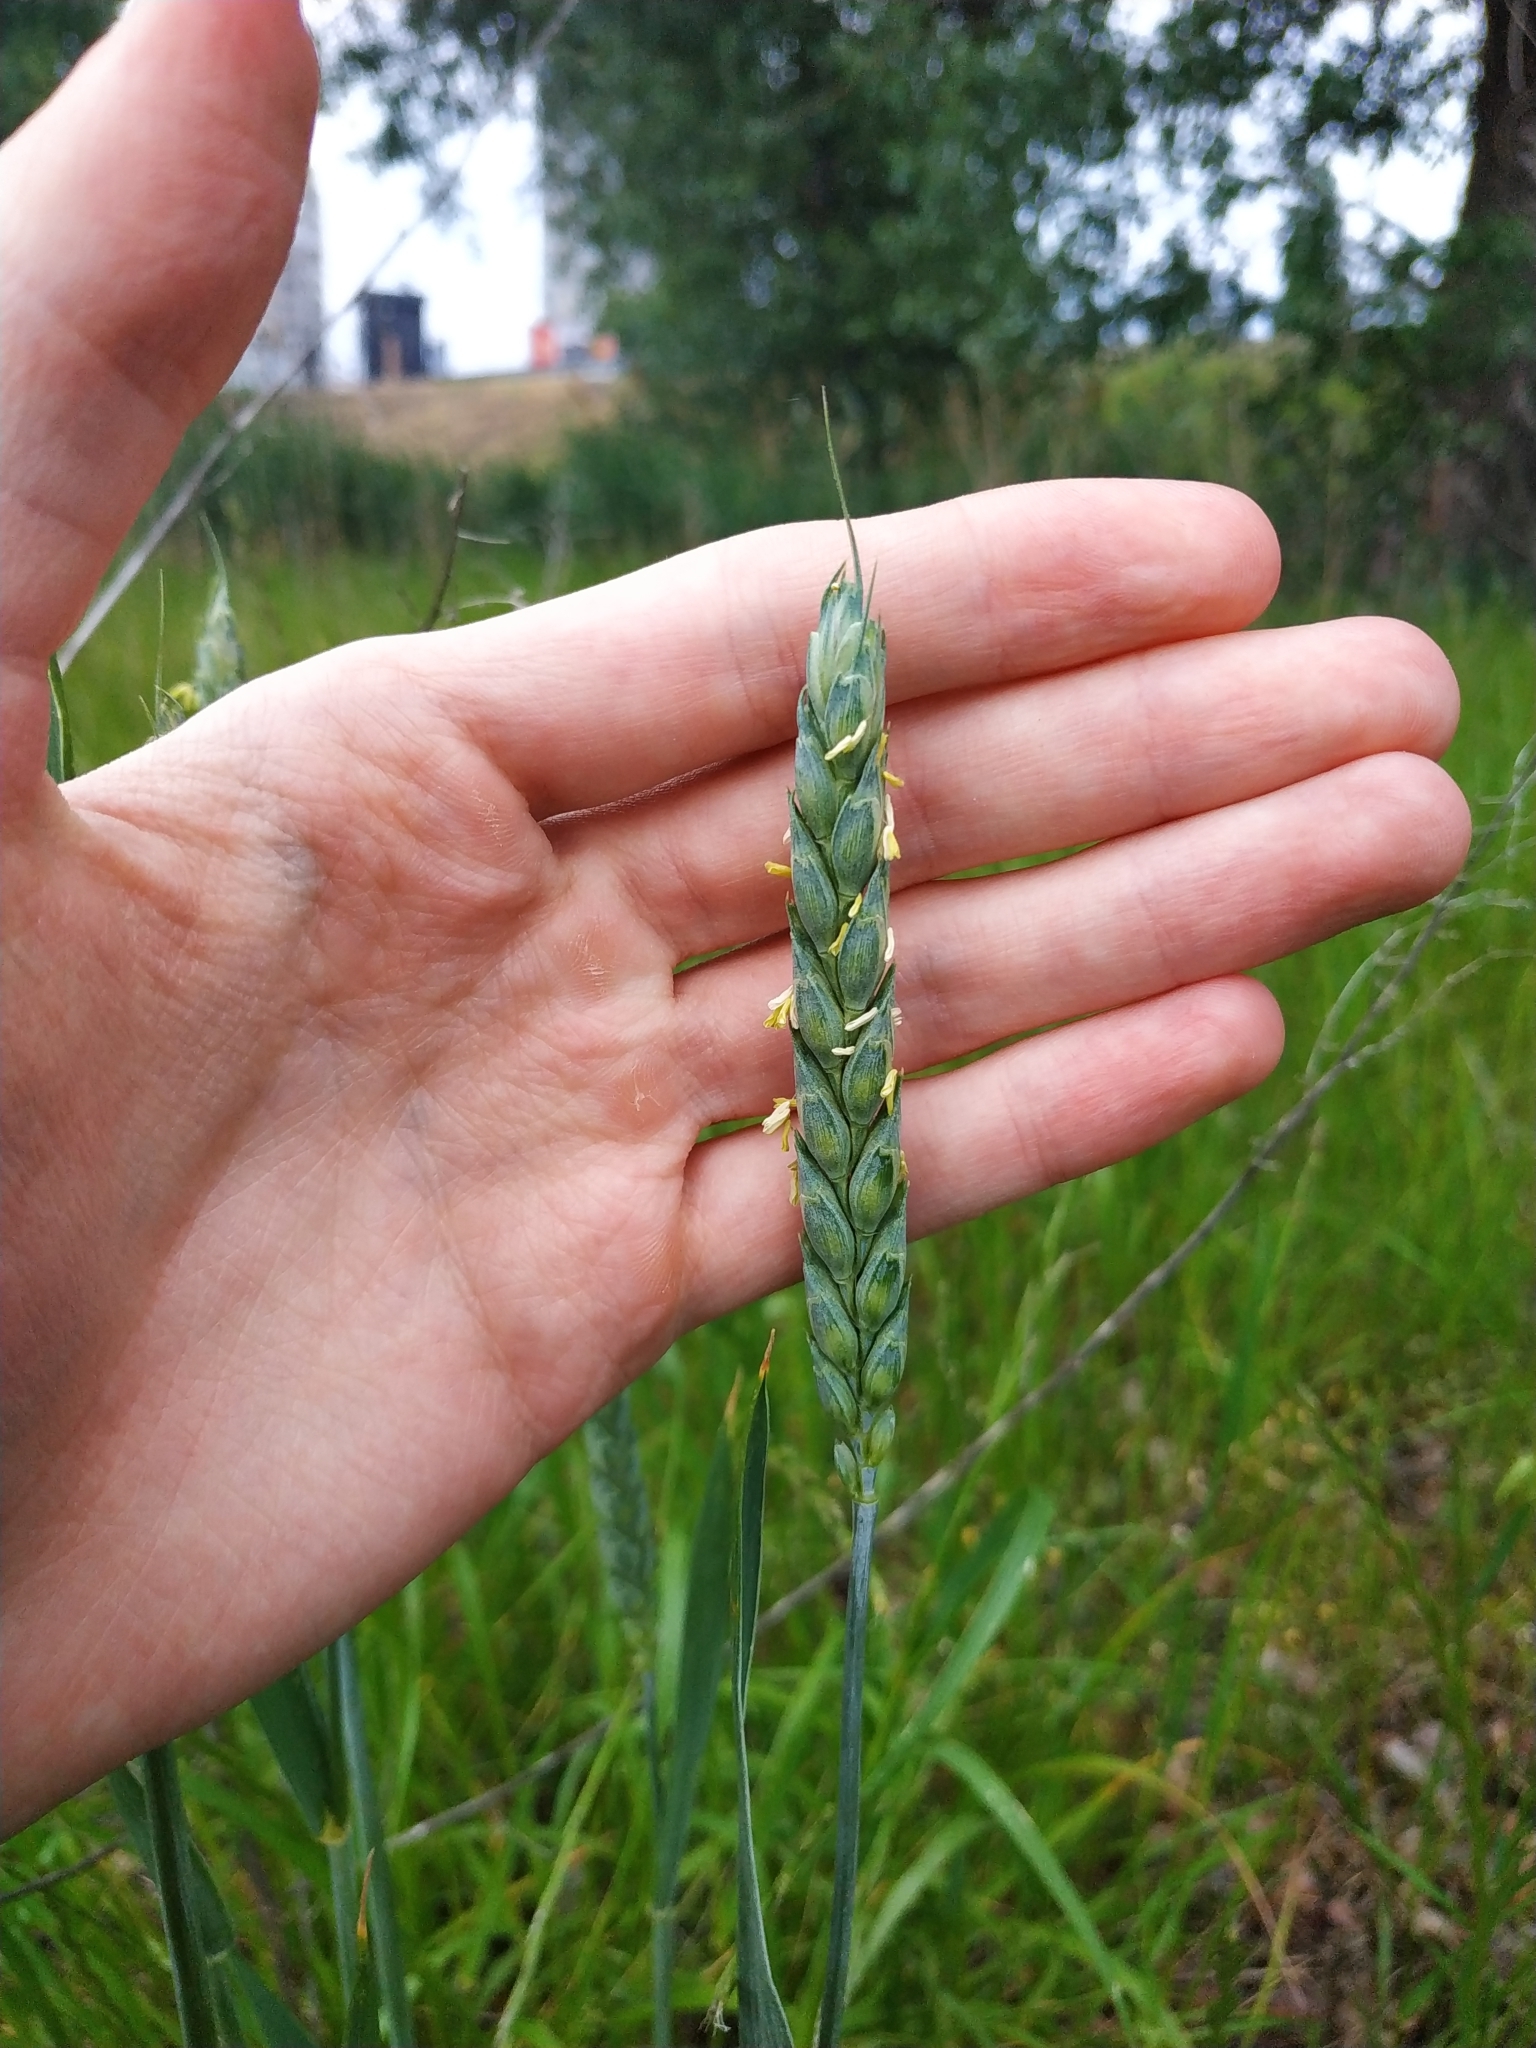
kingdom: Plantae
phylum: Tracheophyta
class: Liliopsida
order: Poales
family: Poaceae
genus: Triticum
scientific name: Triticum aestivum
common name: Common wheat
